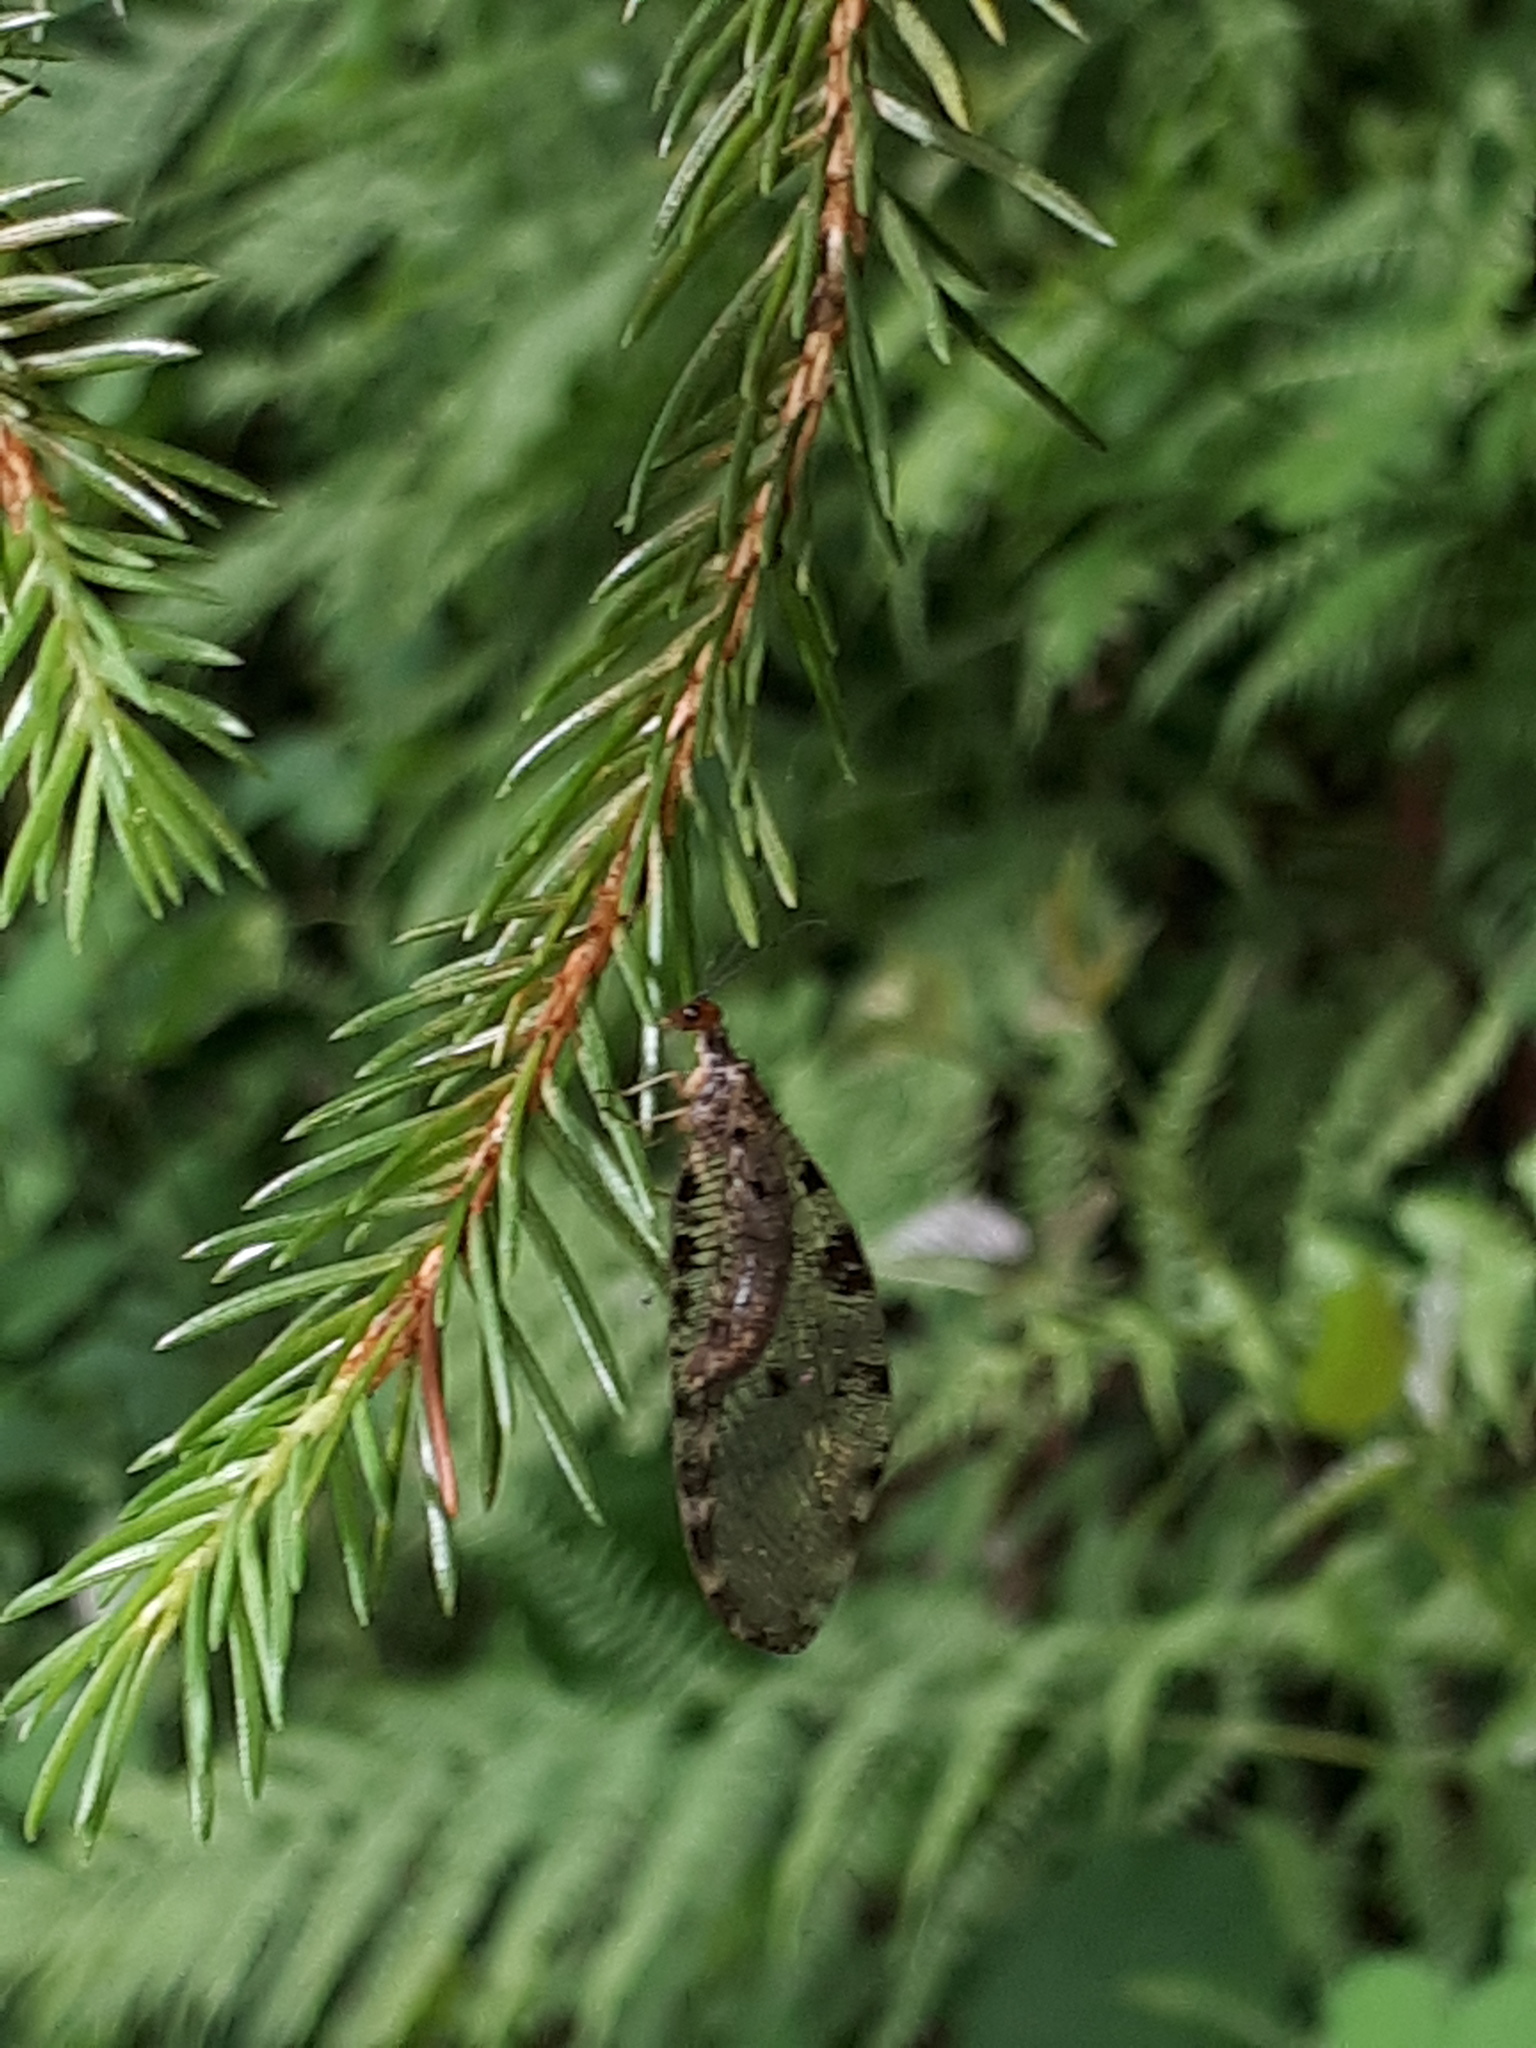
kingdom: Animalia
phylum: Arthropoda
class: Insecta
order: Neuroptera
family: Osmylidae
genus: Osmylus
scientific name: Osmylus fulvicephalus
